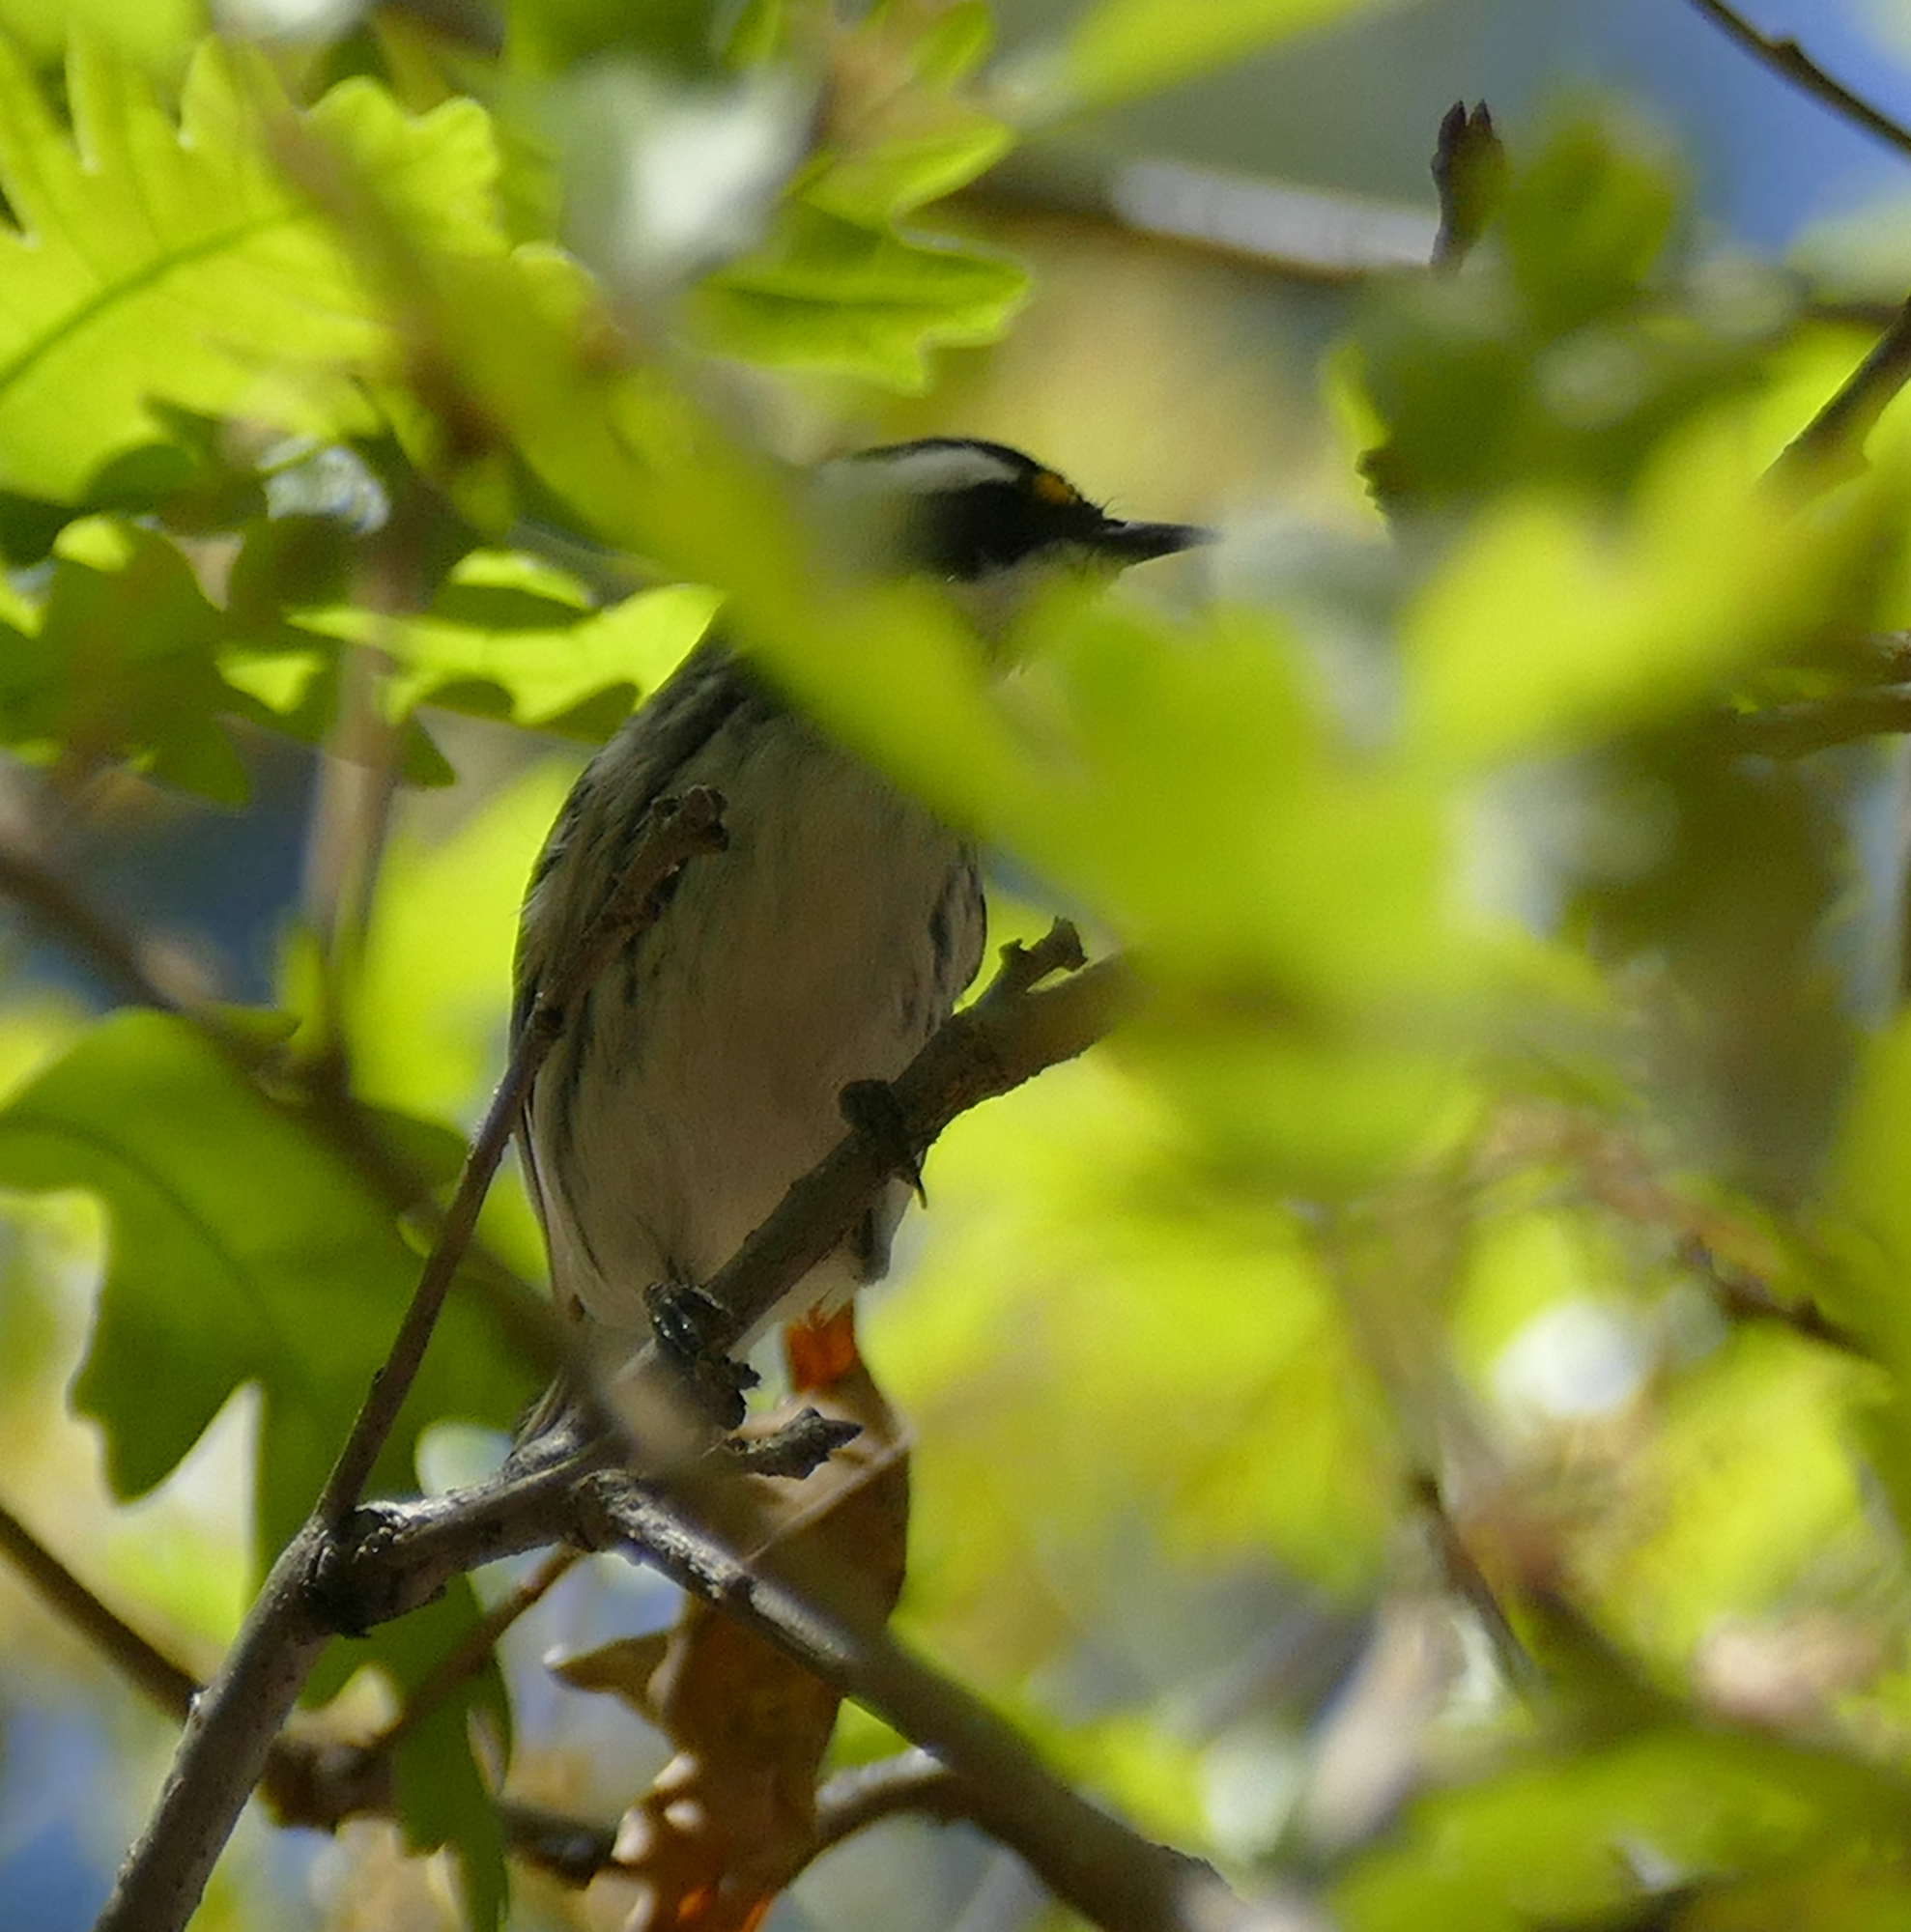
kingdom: Animalia
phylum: Chordata
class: Aves
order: Passeriformes
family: Parulidae
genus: Setophaga
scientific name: Setophaga nigrescens
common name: Black-throated gray warbler
